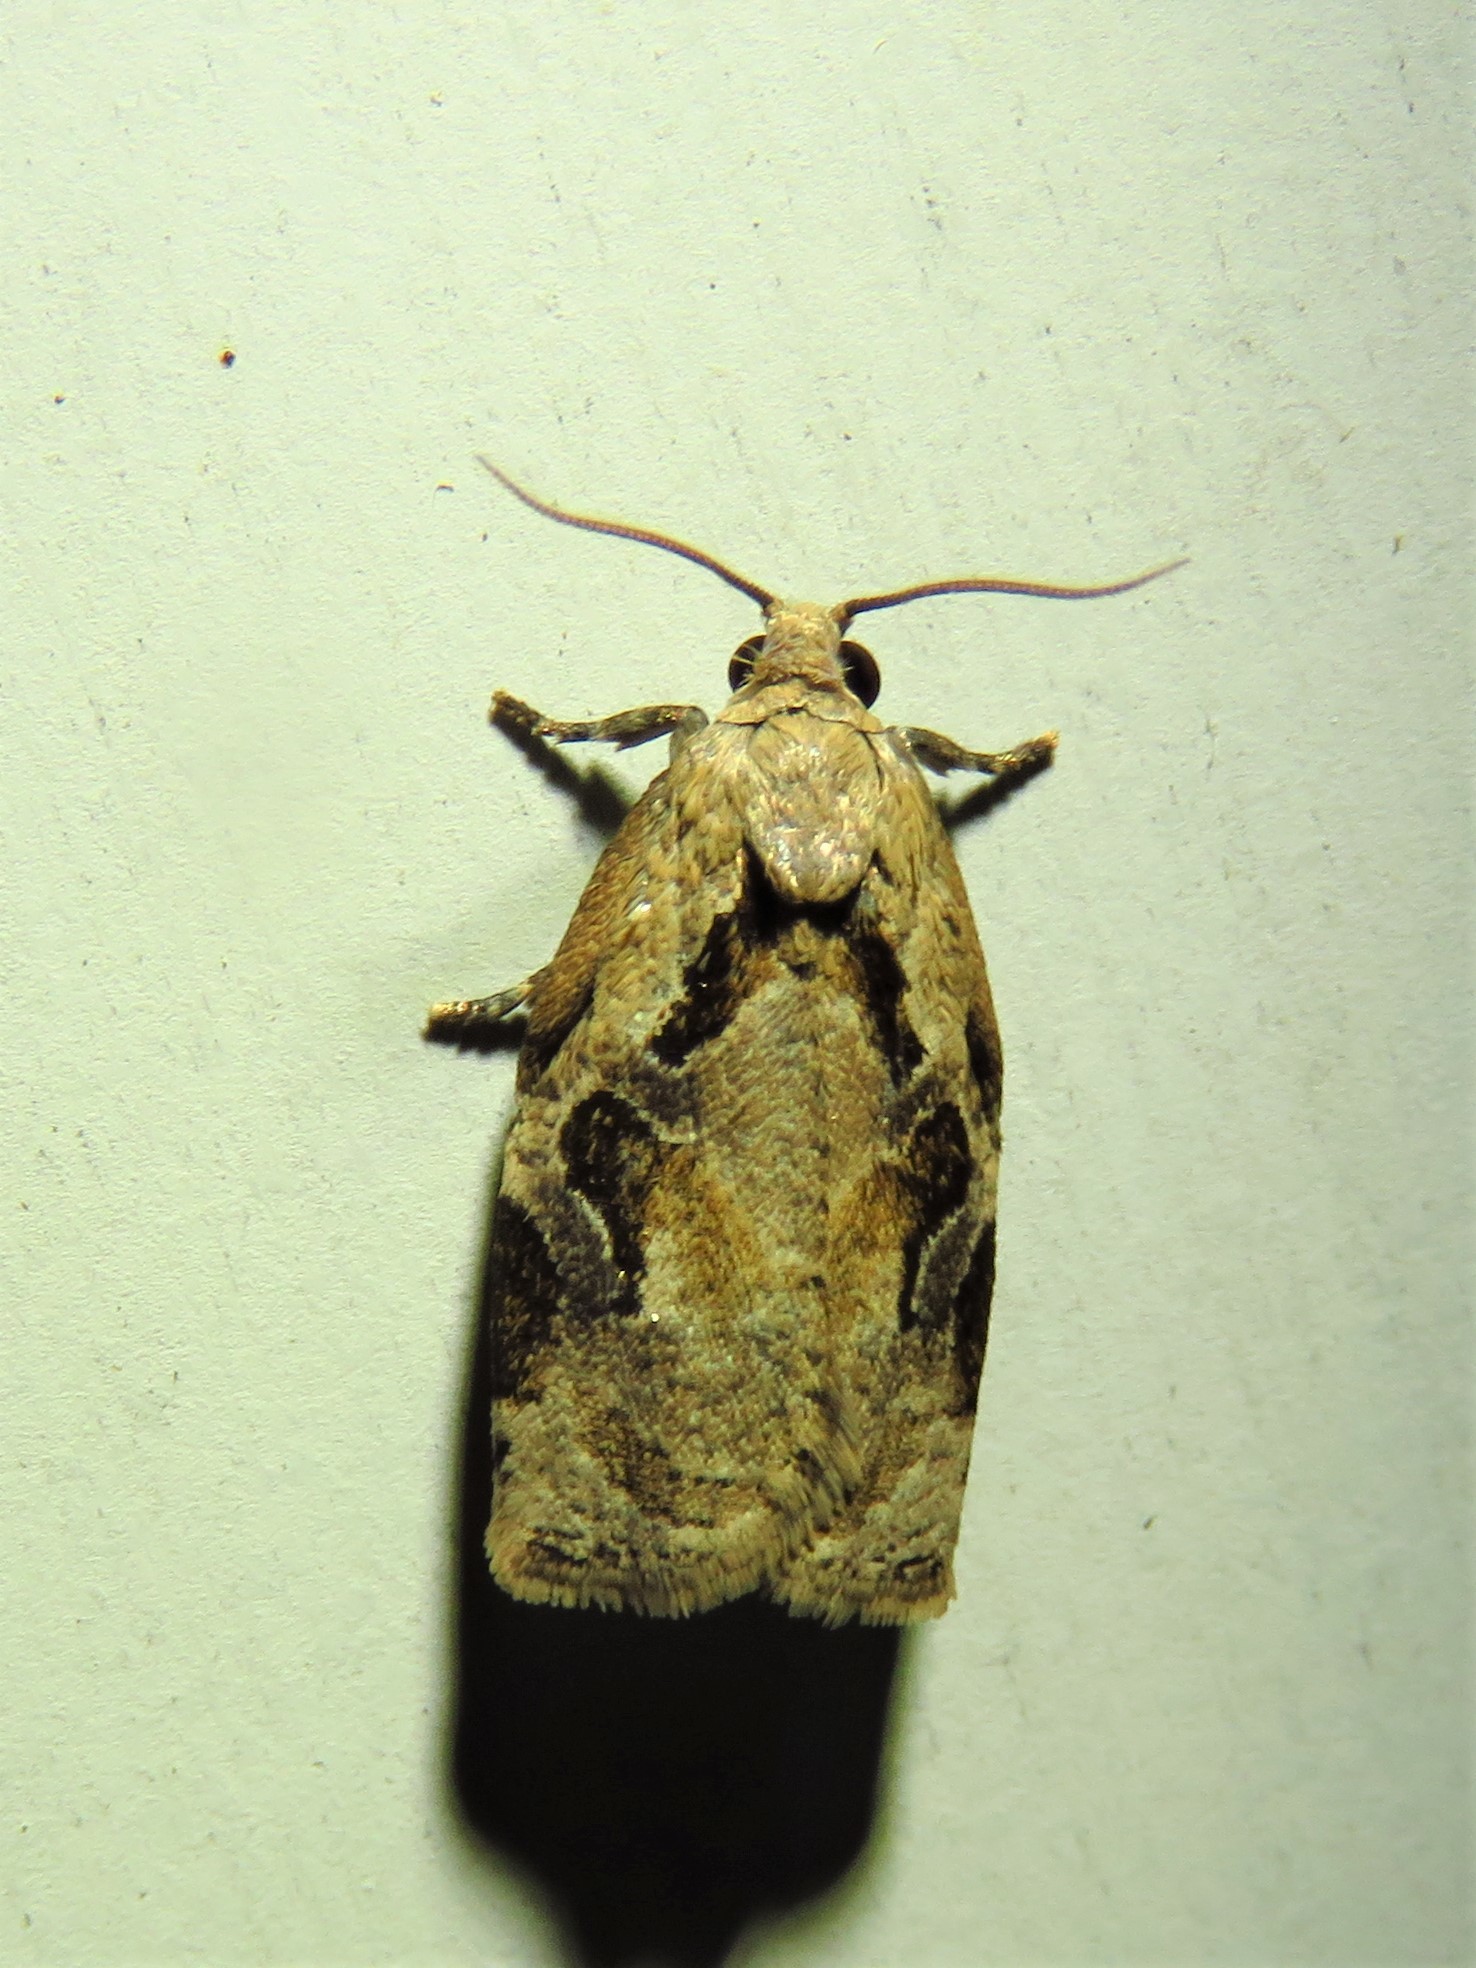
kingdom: Animalia
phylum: Arthropoda
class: Insecta
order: Lepidoptera
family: Tortricidae
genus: Archips
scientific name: Archips grisea
